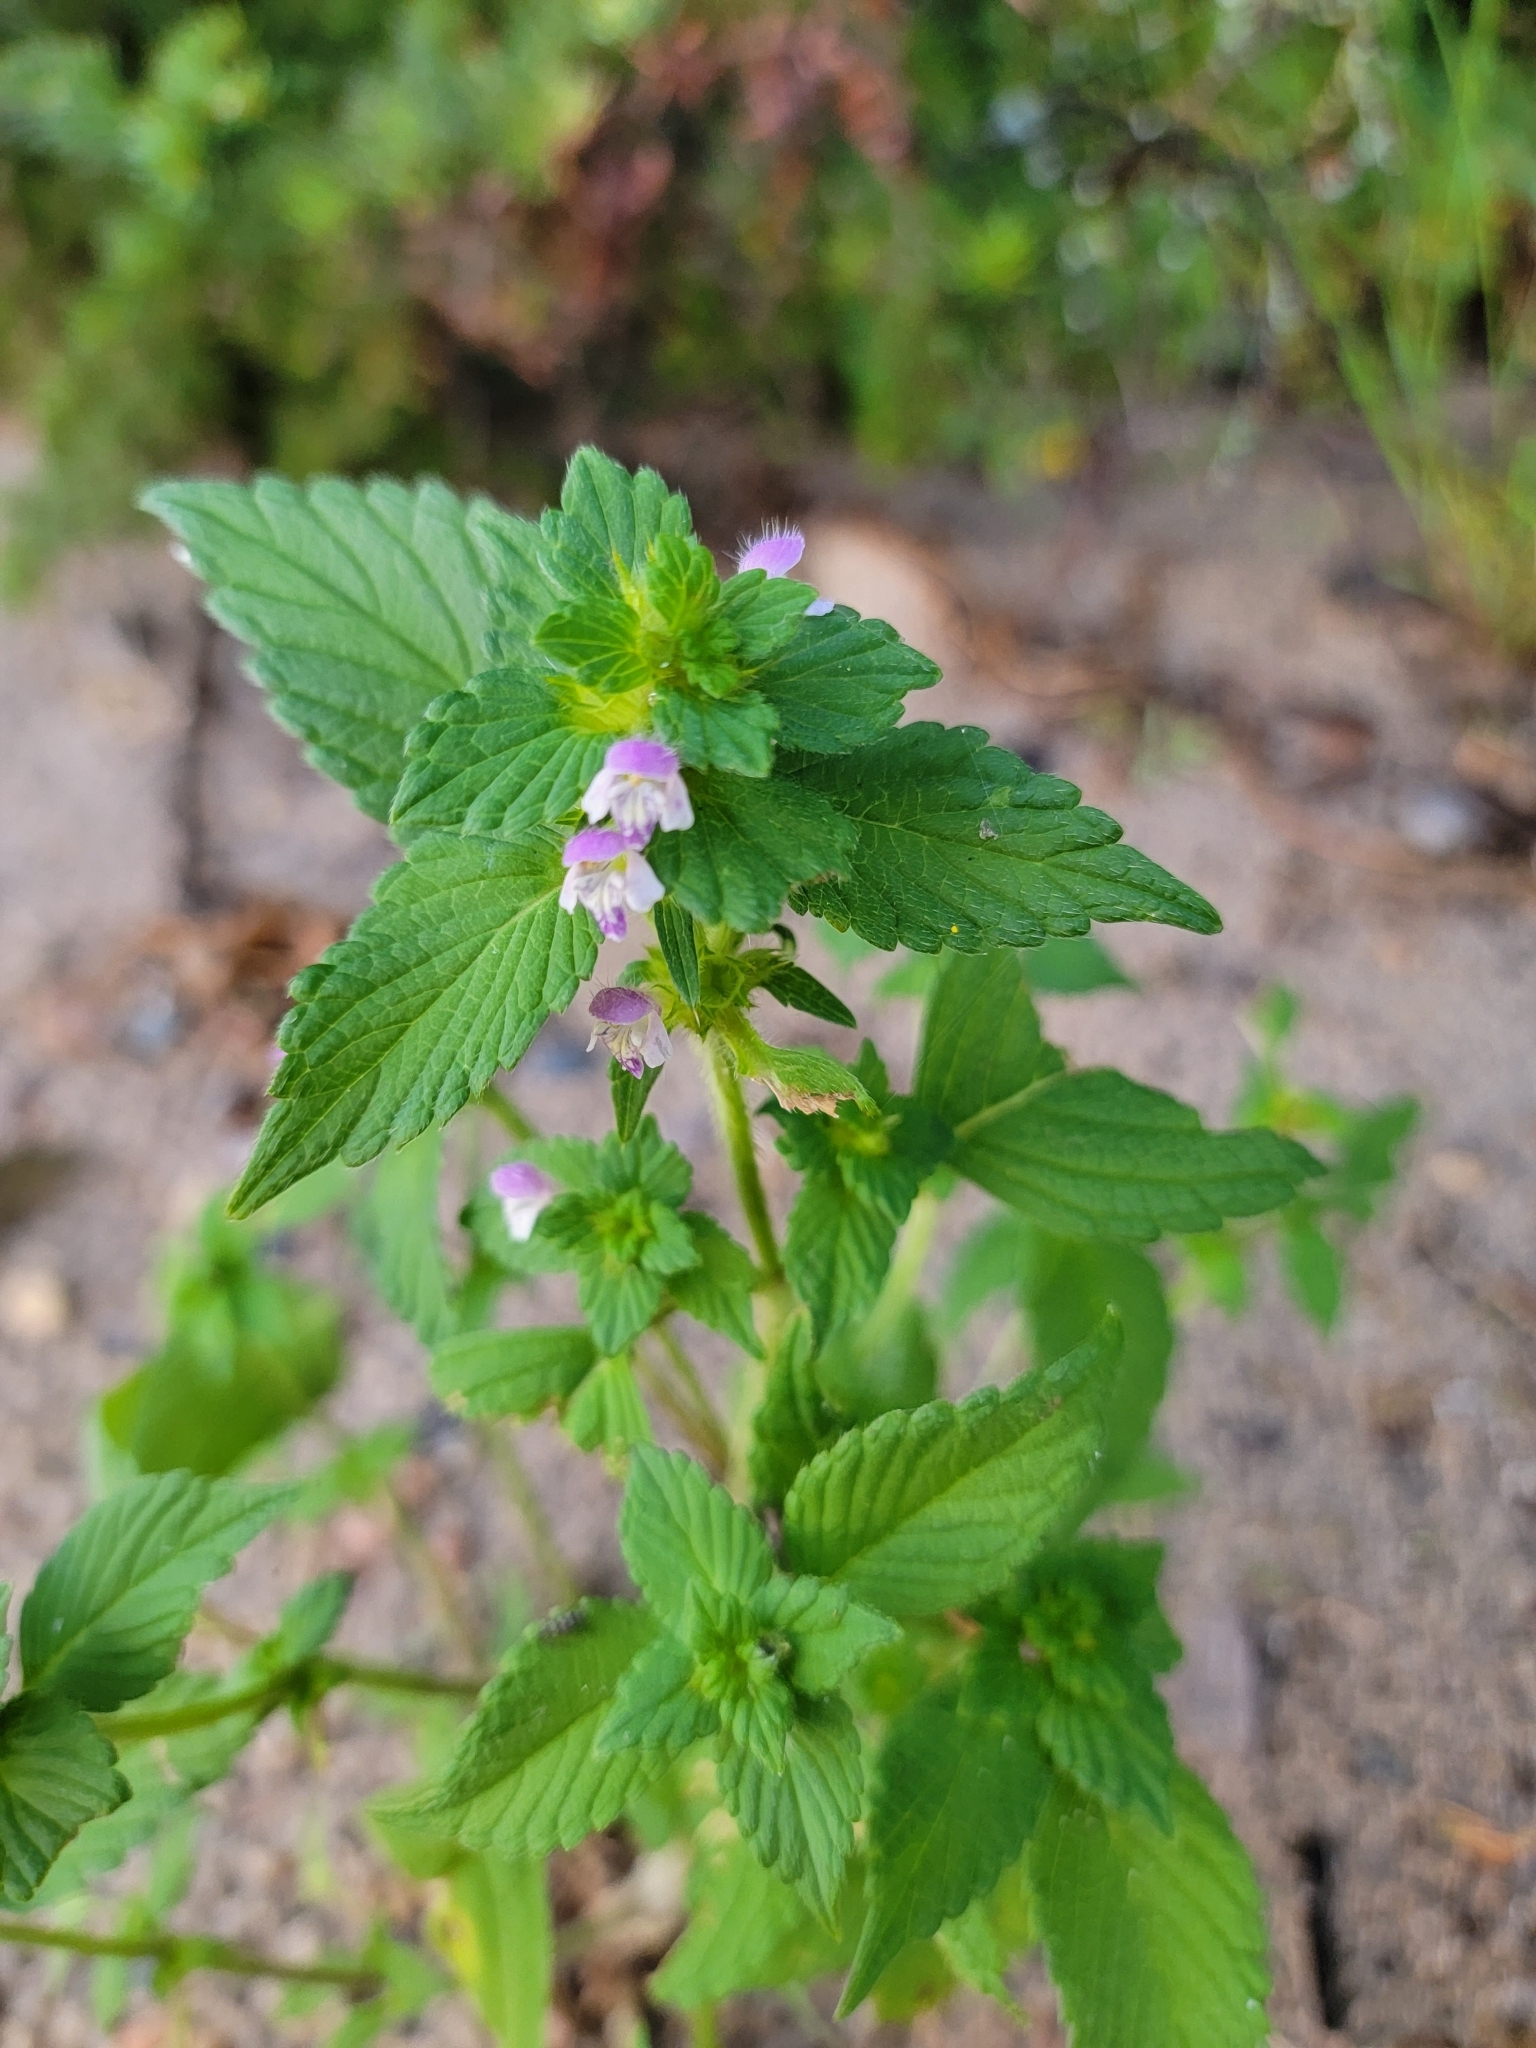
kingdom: Plantae
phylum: Tracheophyta
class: Magnoliopsida
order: Lamiales
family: Lamiaceae
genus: Galeopsis
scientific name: Galeopsis bifida
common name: Bifid hemp-nettle
